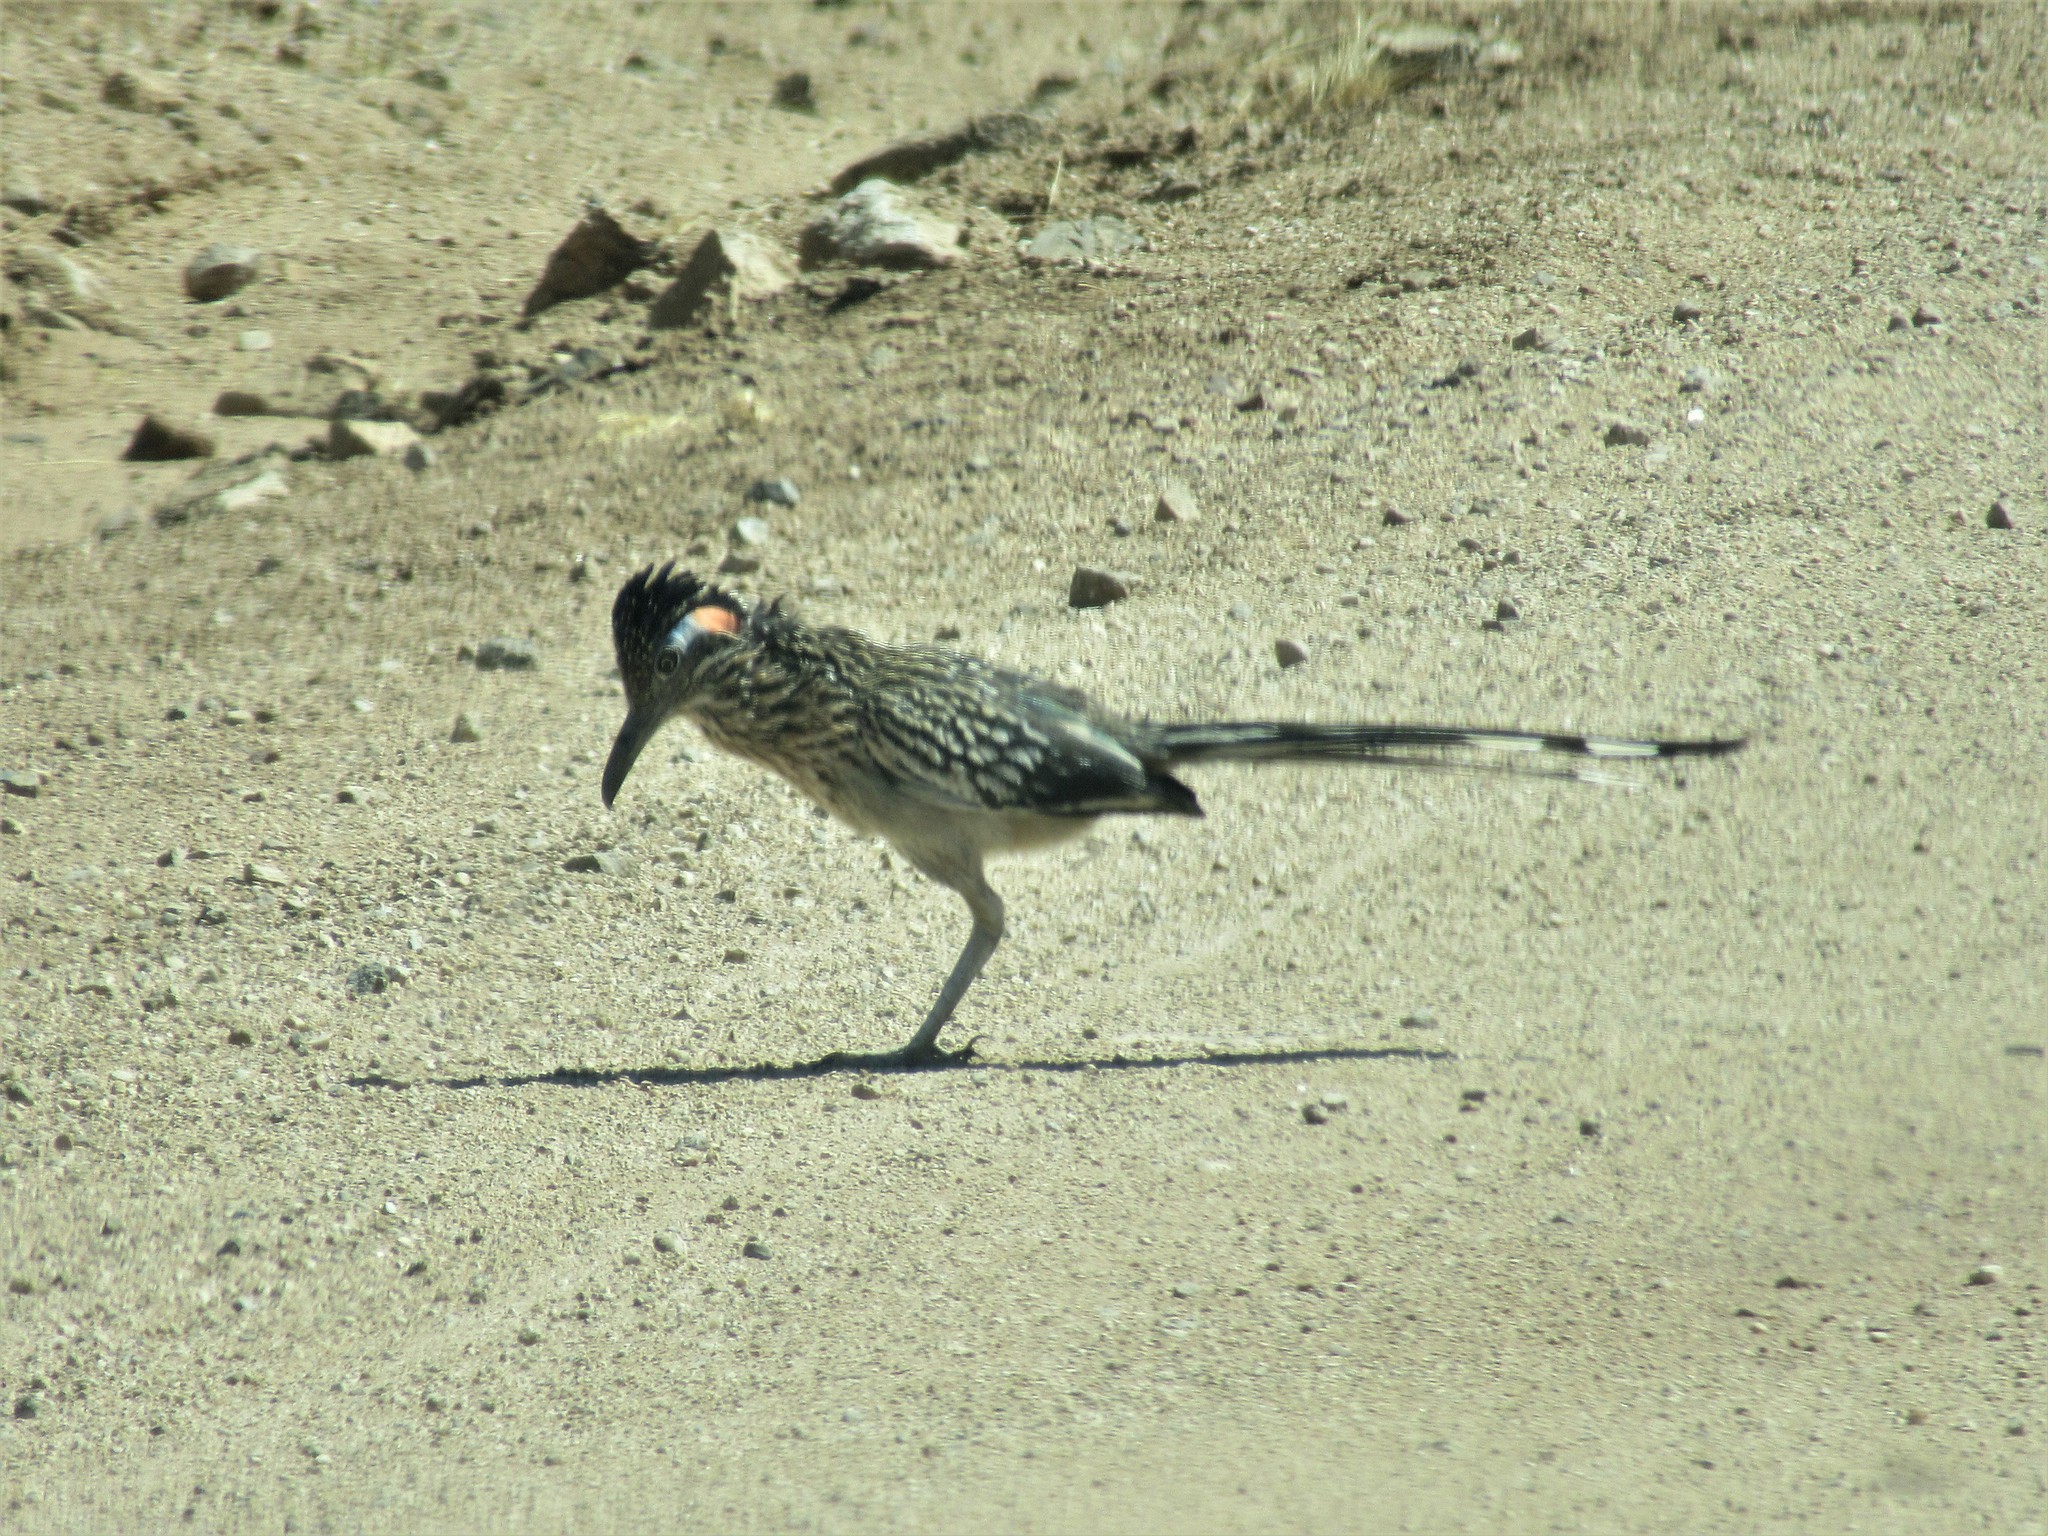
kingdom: Animalia
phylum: Chordata
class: Aves
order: Cuculiformes
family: Cuculidae
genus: Geococcyx
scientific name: Geococcyx californianus
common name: Greater roadrunner
